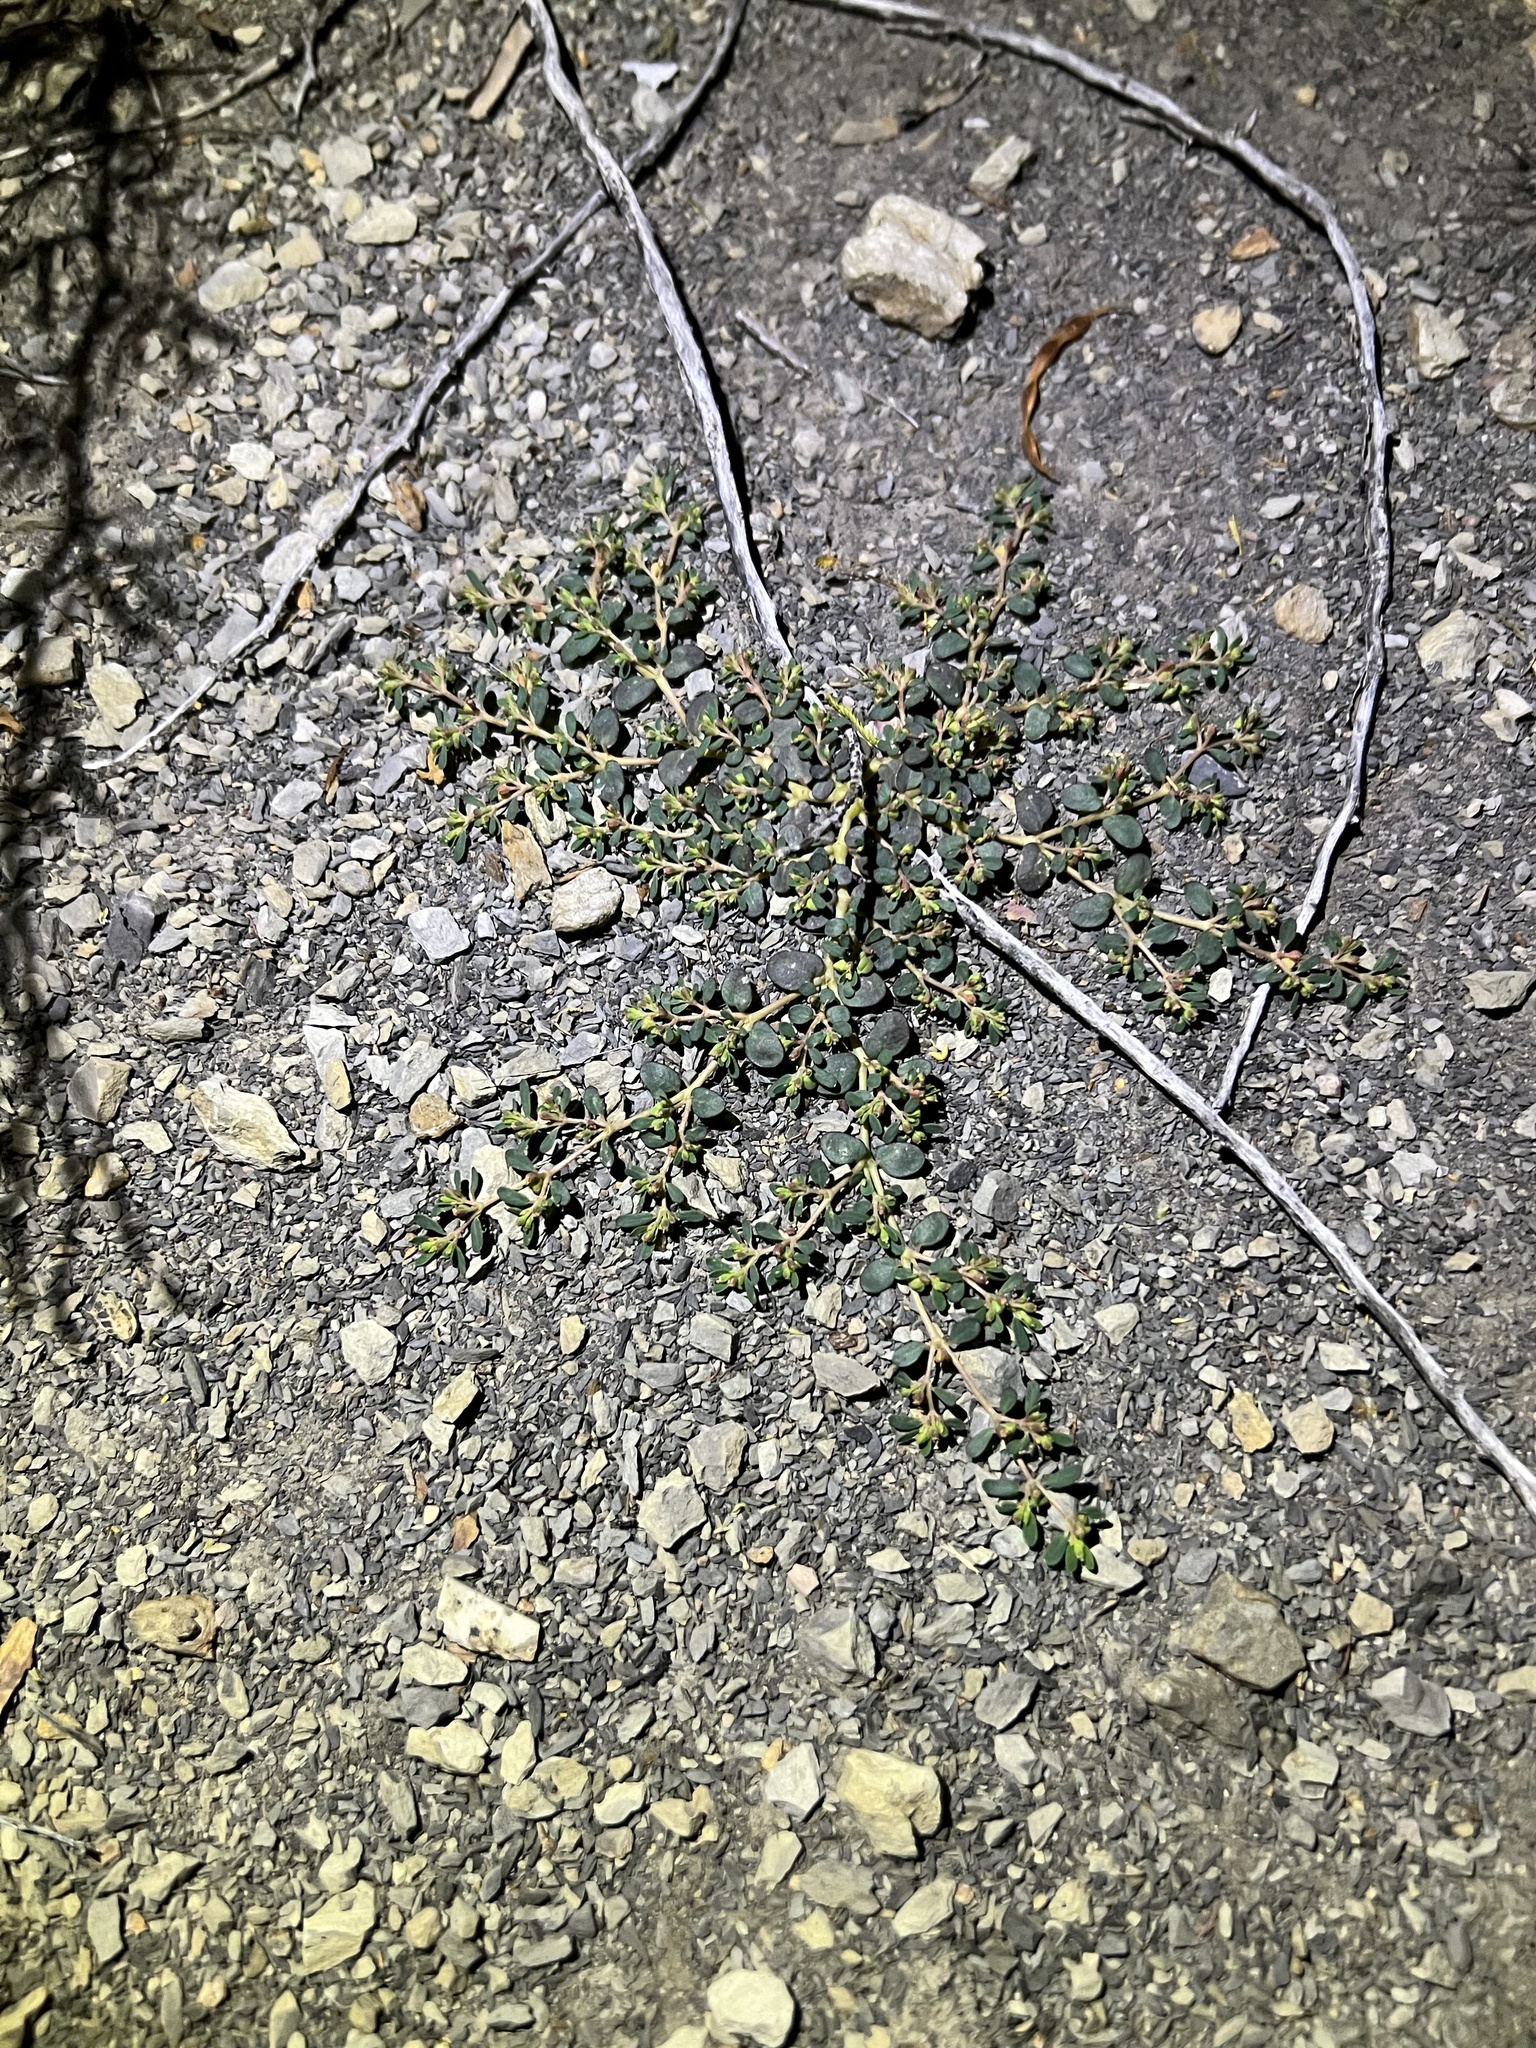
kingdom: Plantae
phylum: Tracheophyta
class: Magnoliopsida
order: Malpighiales
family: Euphorbiaceae
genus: Euphorbia
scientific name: Euphorbia cryptorubra
